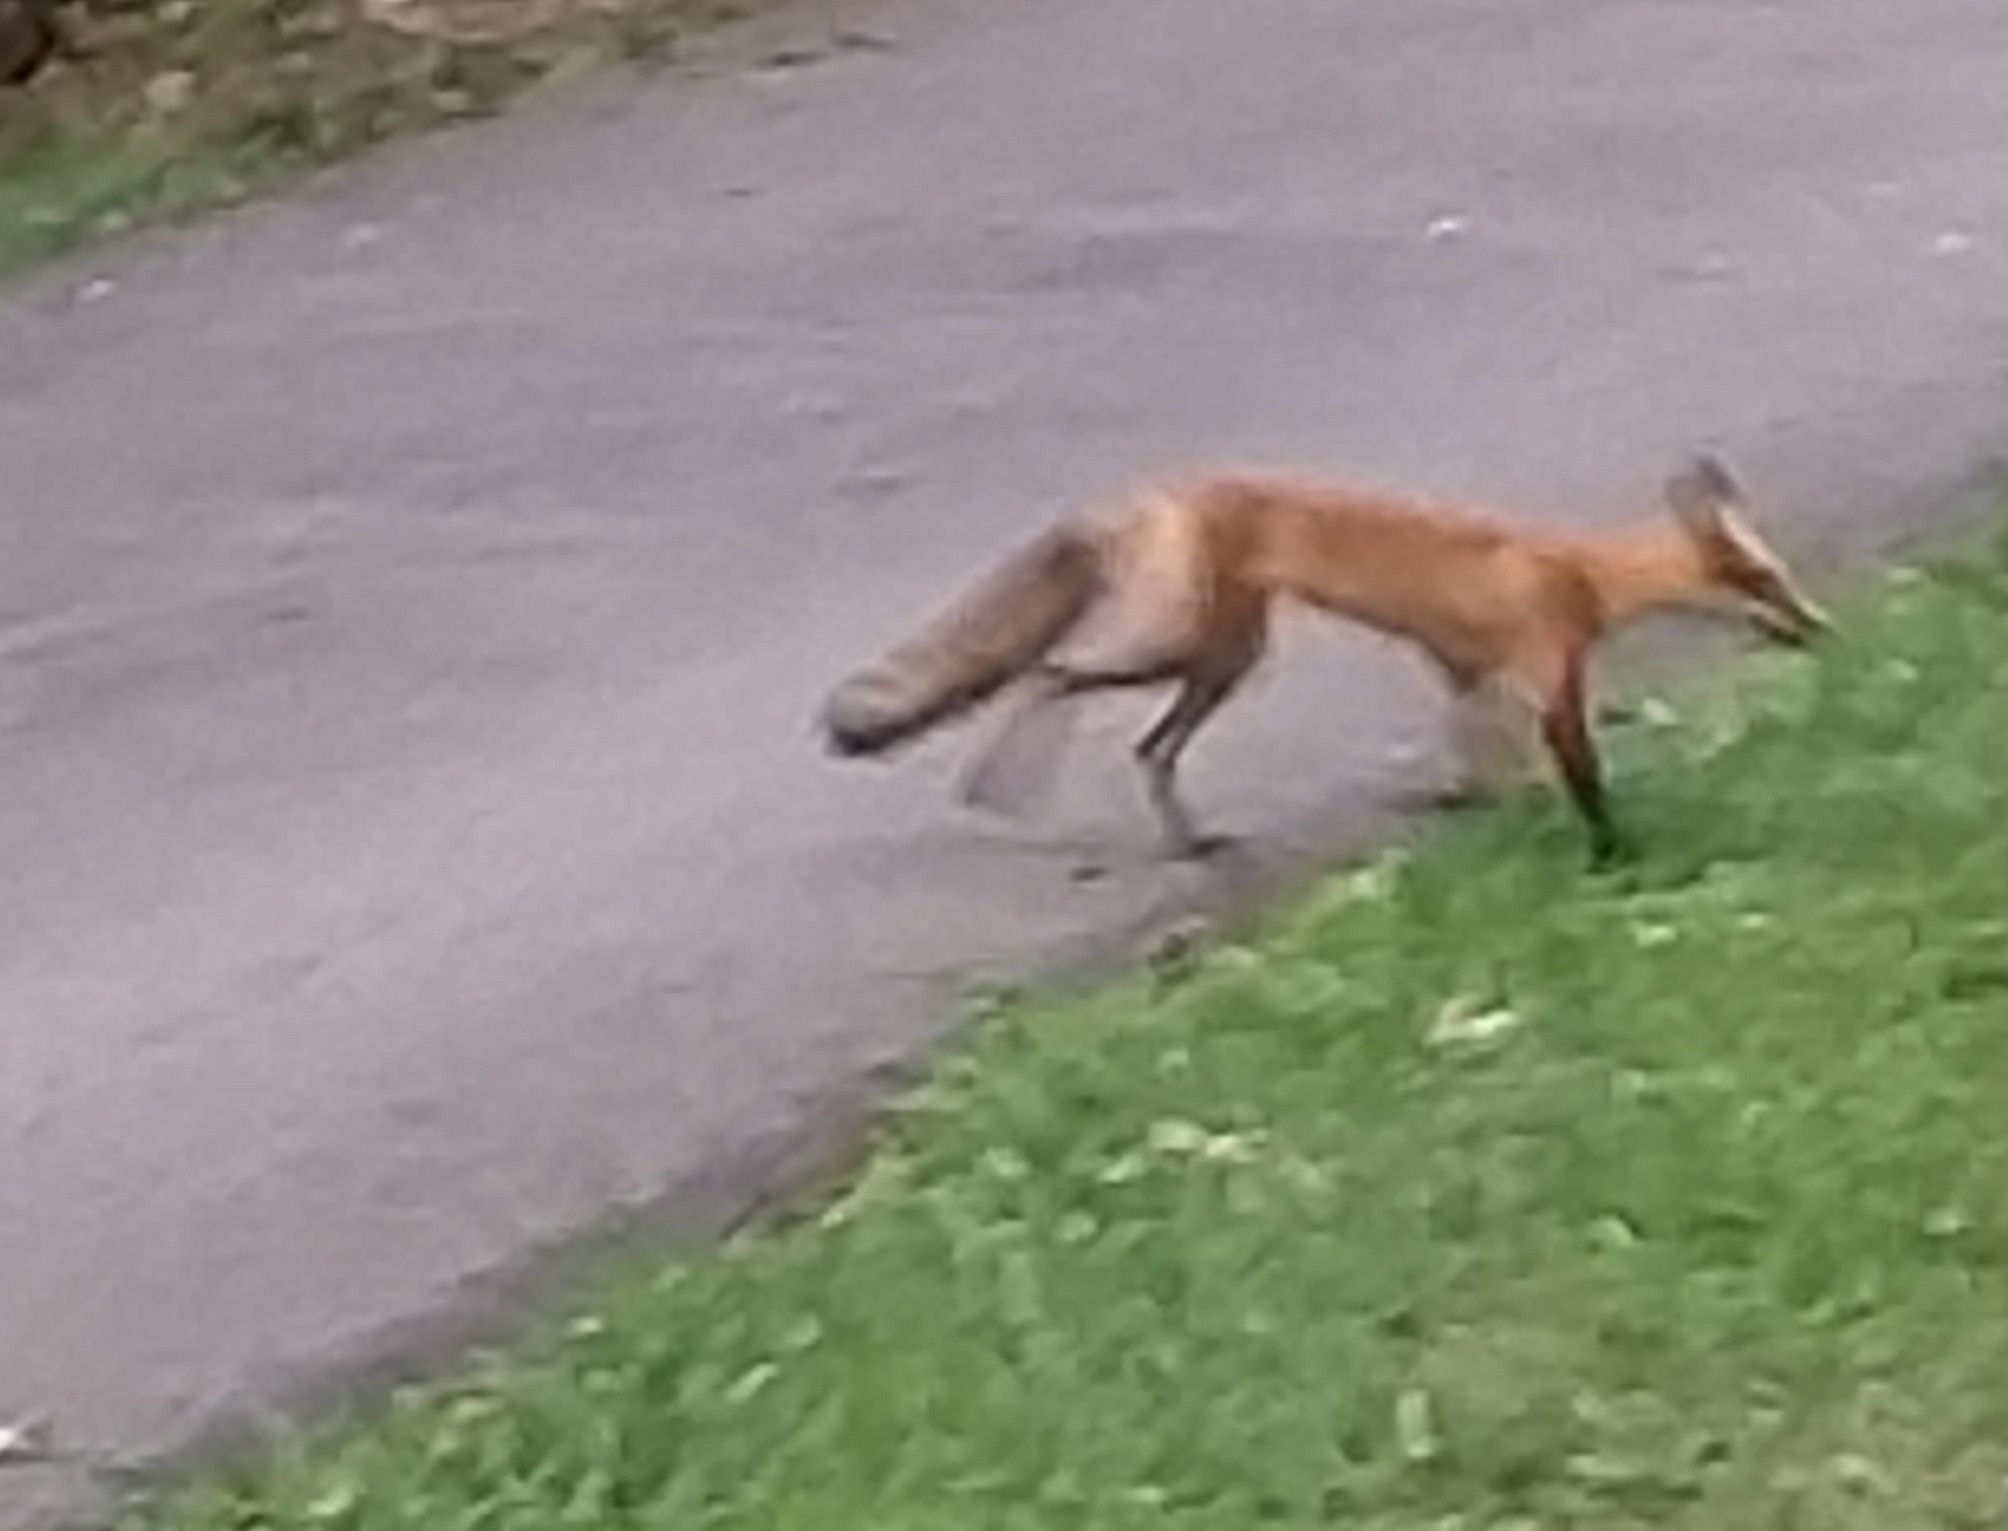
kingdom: Animalia
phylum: Chordata
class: Mammalia
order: Carnivora
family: Canidae
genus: Vulpes
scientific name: Vulpes vulpes
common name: Red fox
